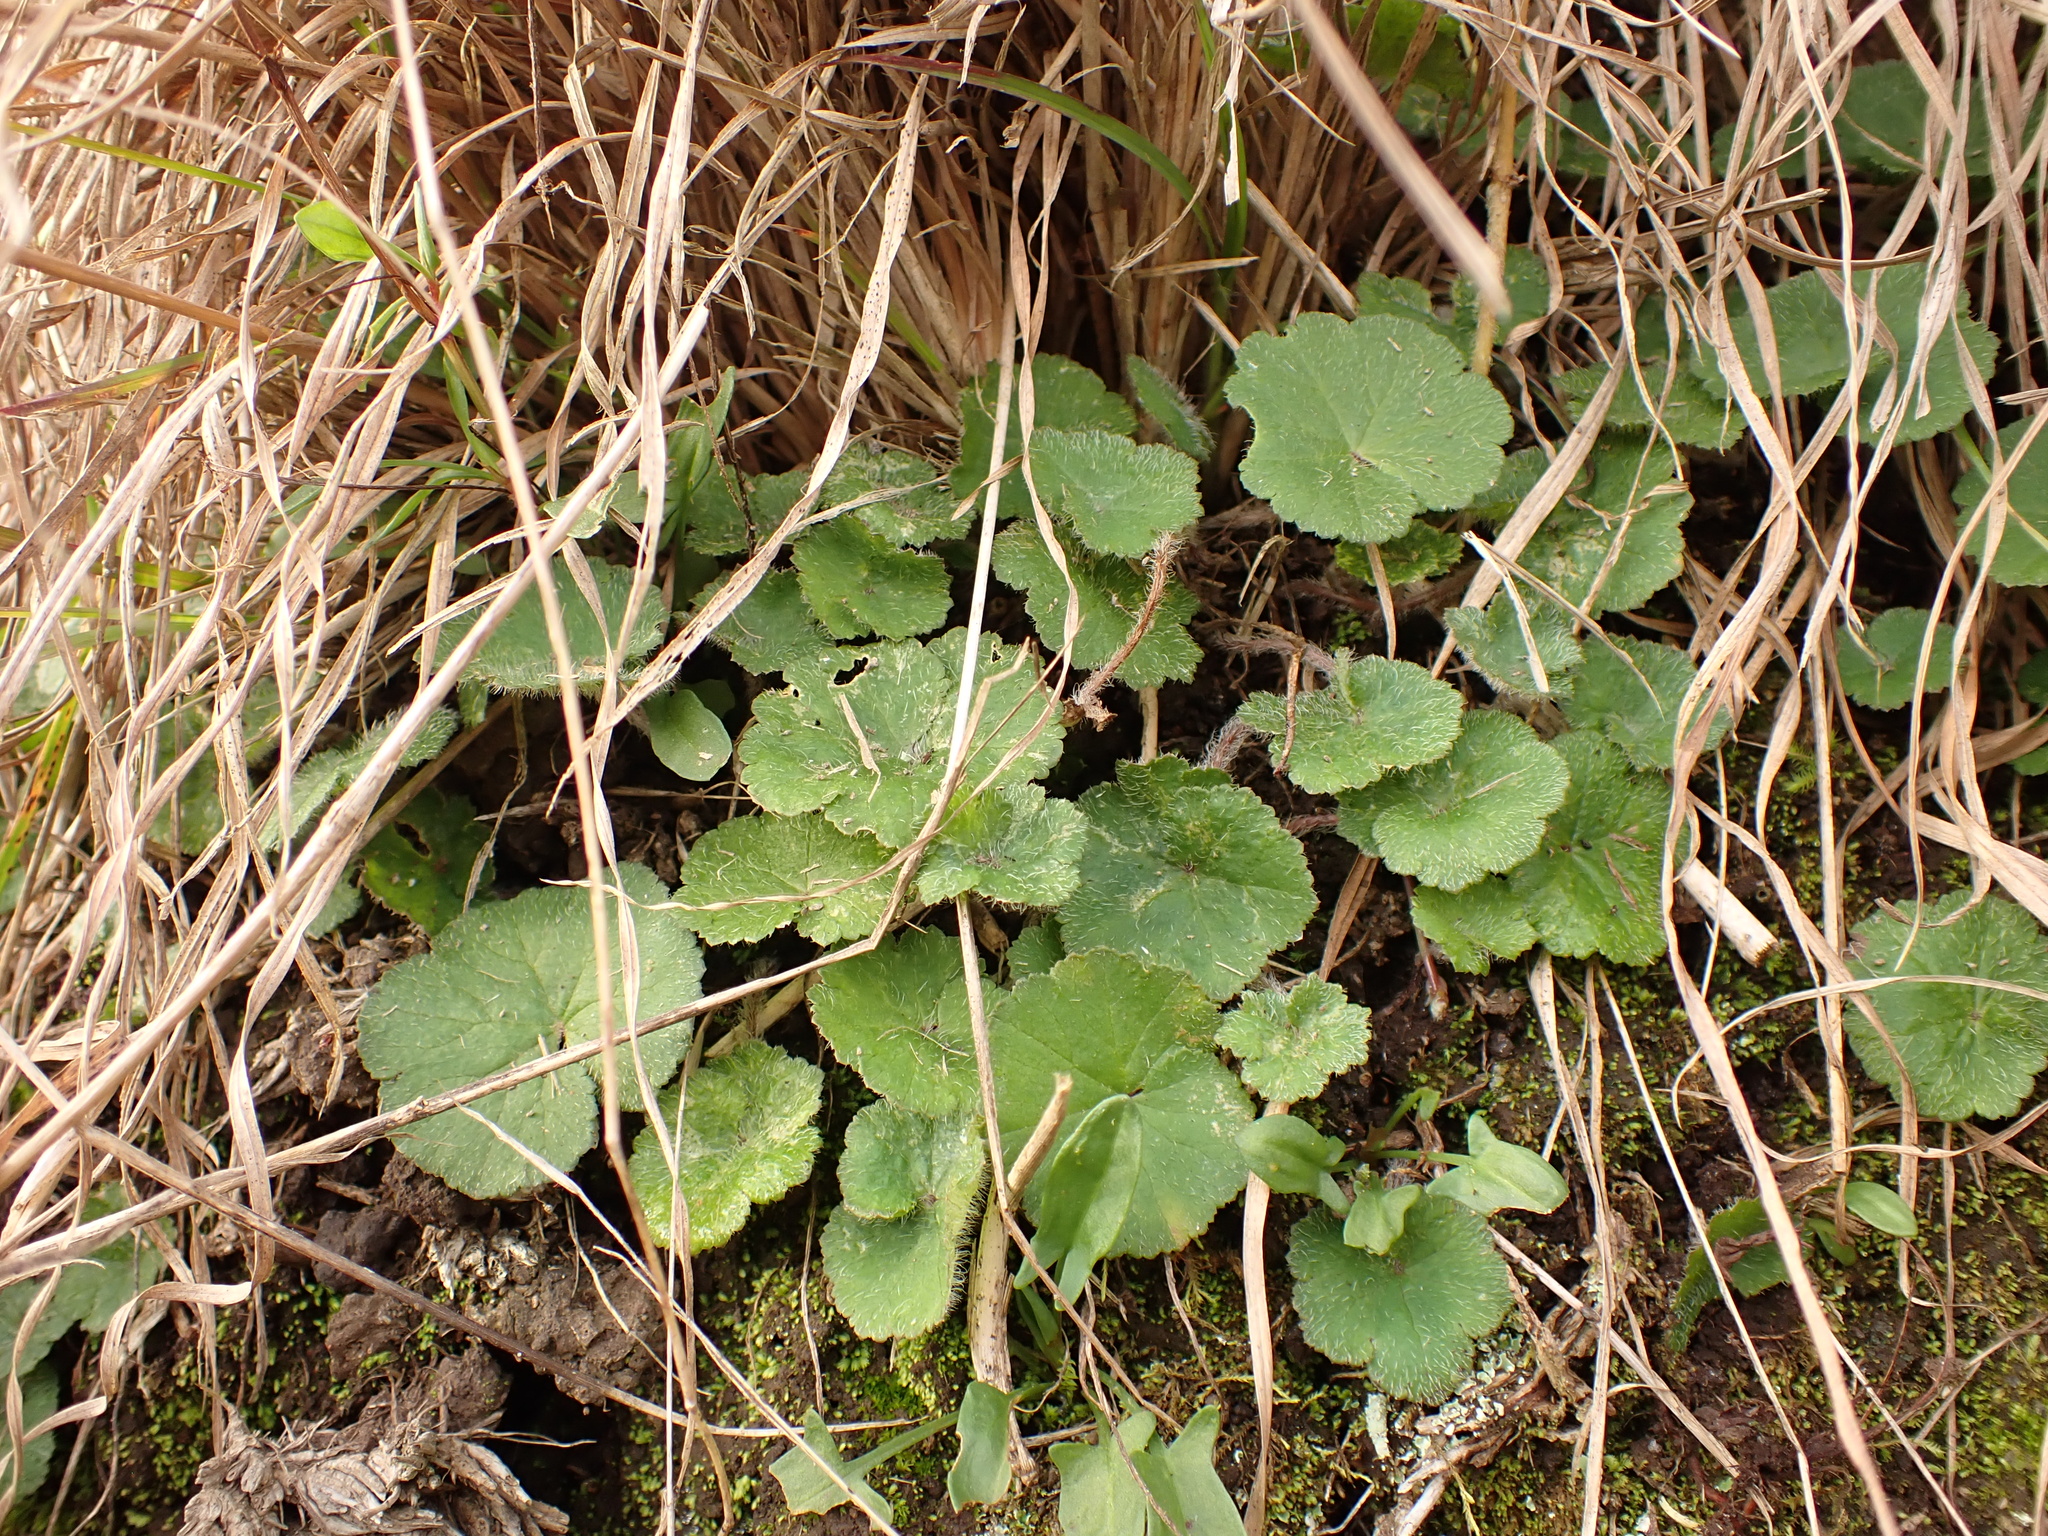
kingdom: Plantae
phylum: Tracheophyta
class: Magnoliopsida
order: Apiales
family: Araliaceae
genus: Hydrocotyle
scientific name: Hydrocotyle laxiflora
